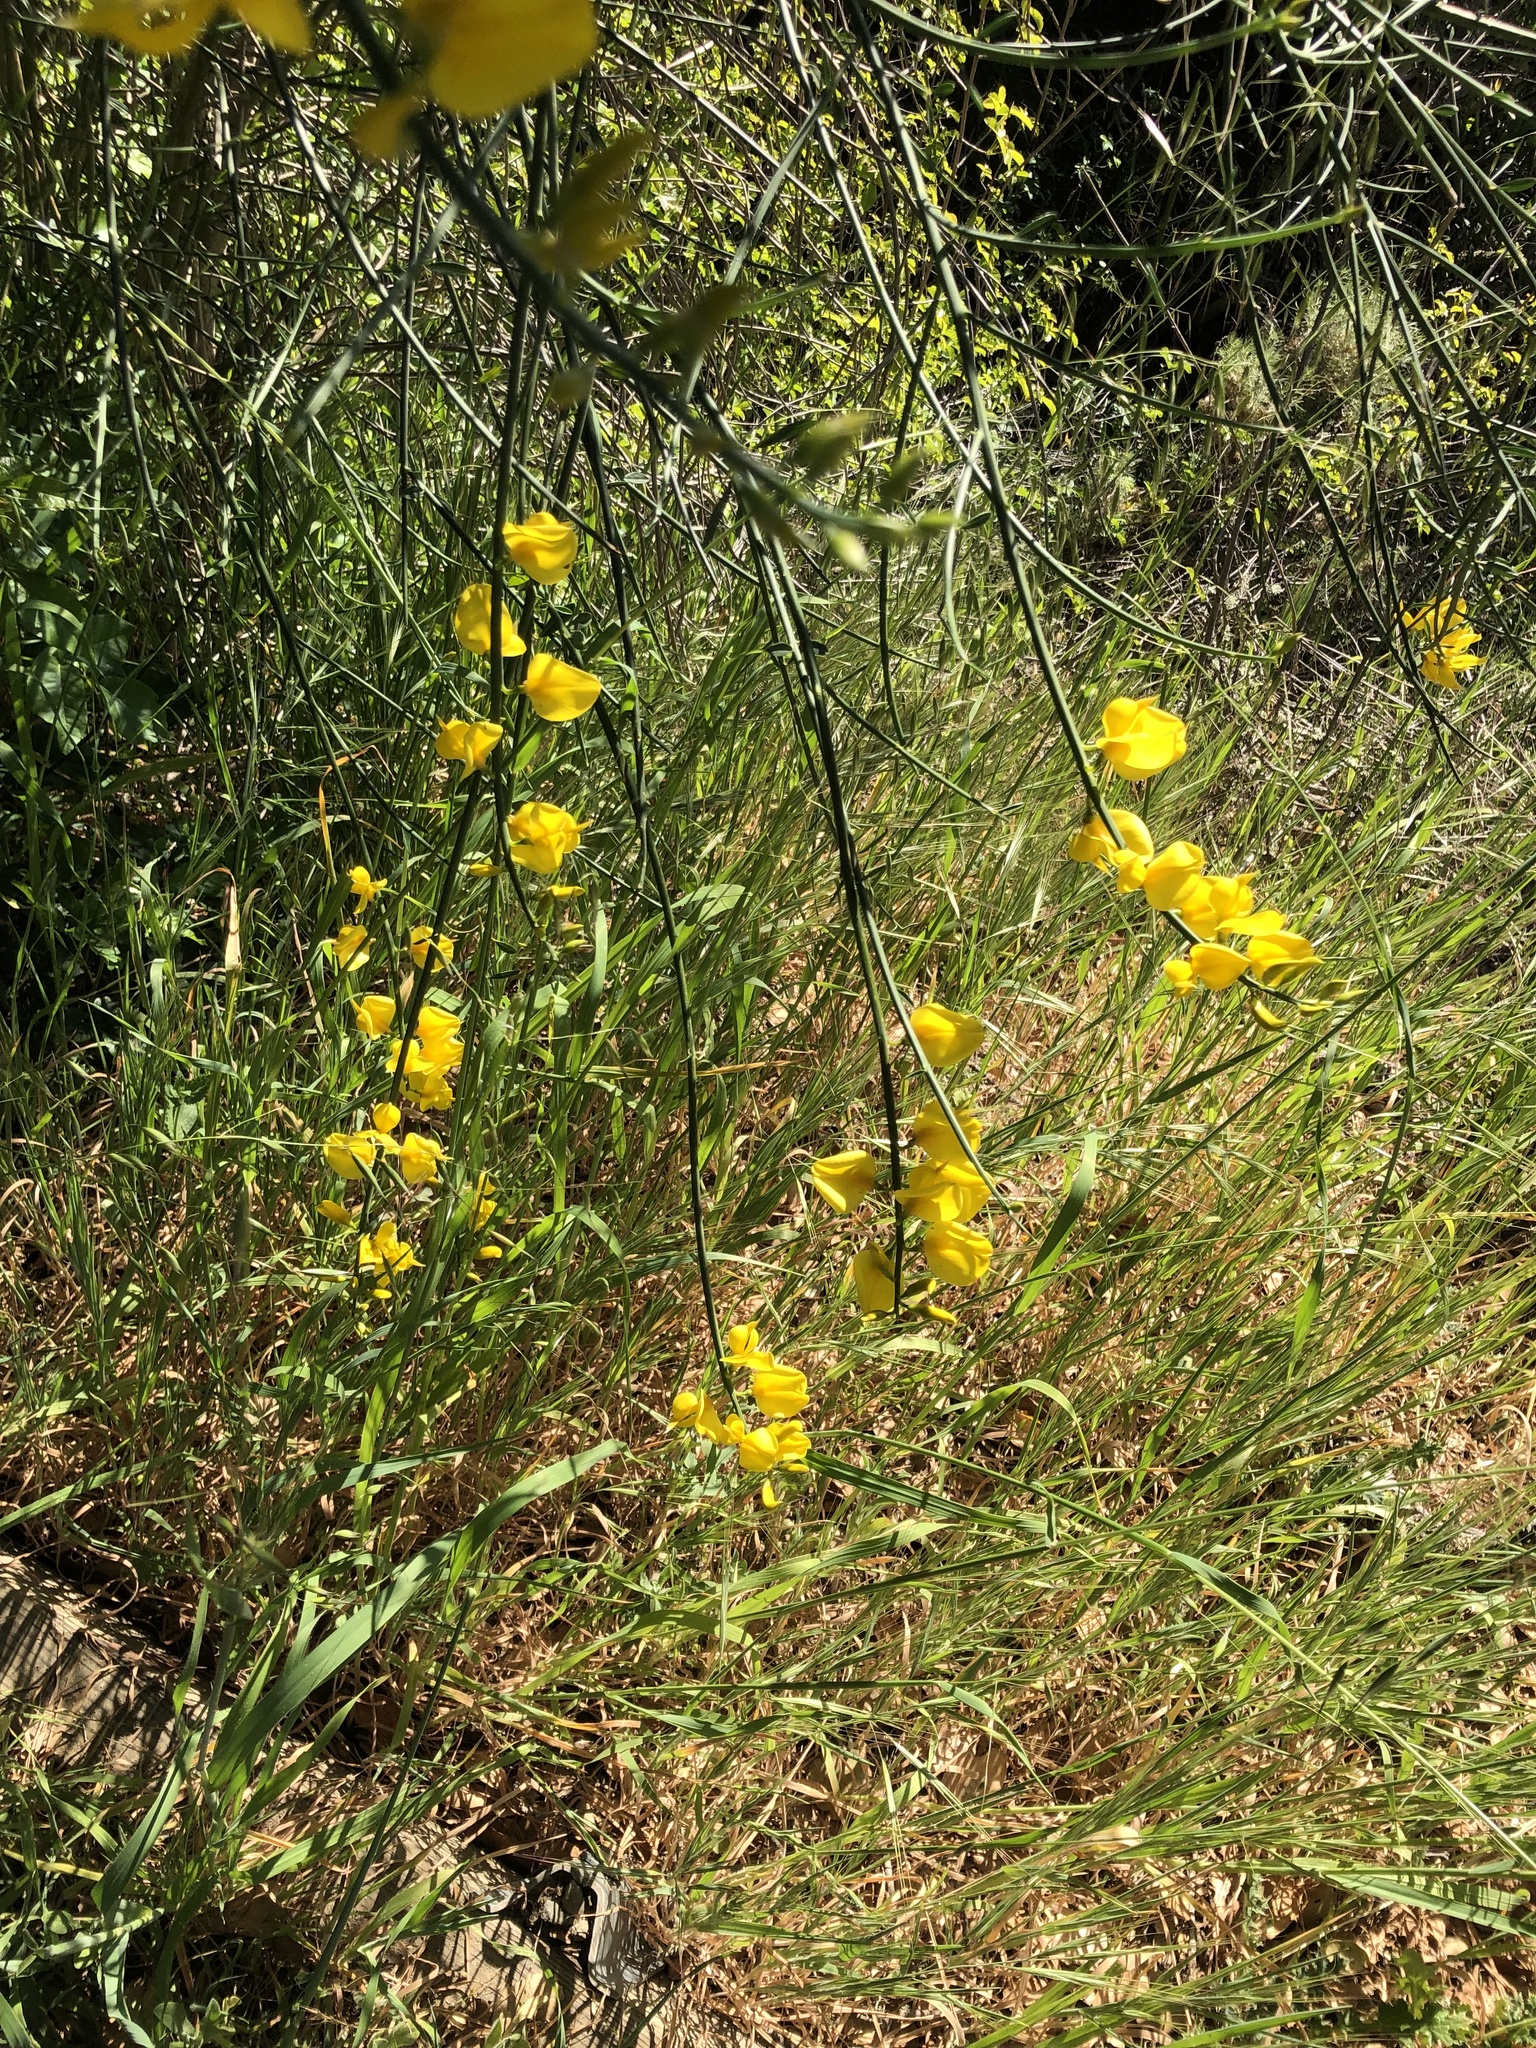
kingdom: Plantae
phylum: Tracheophyta
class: Magnoliopsida
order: Fabales
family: Fabaceae
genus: Spartium
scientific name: Spartium junceum
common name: Spanish broom
